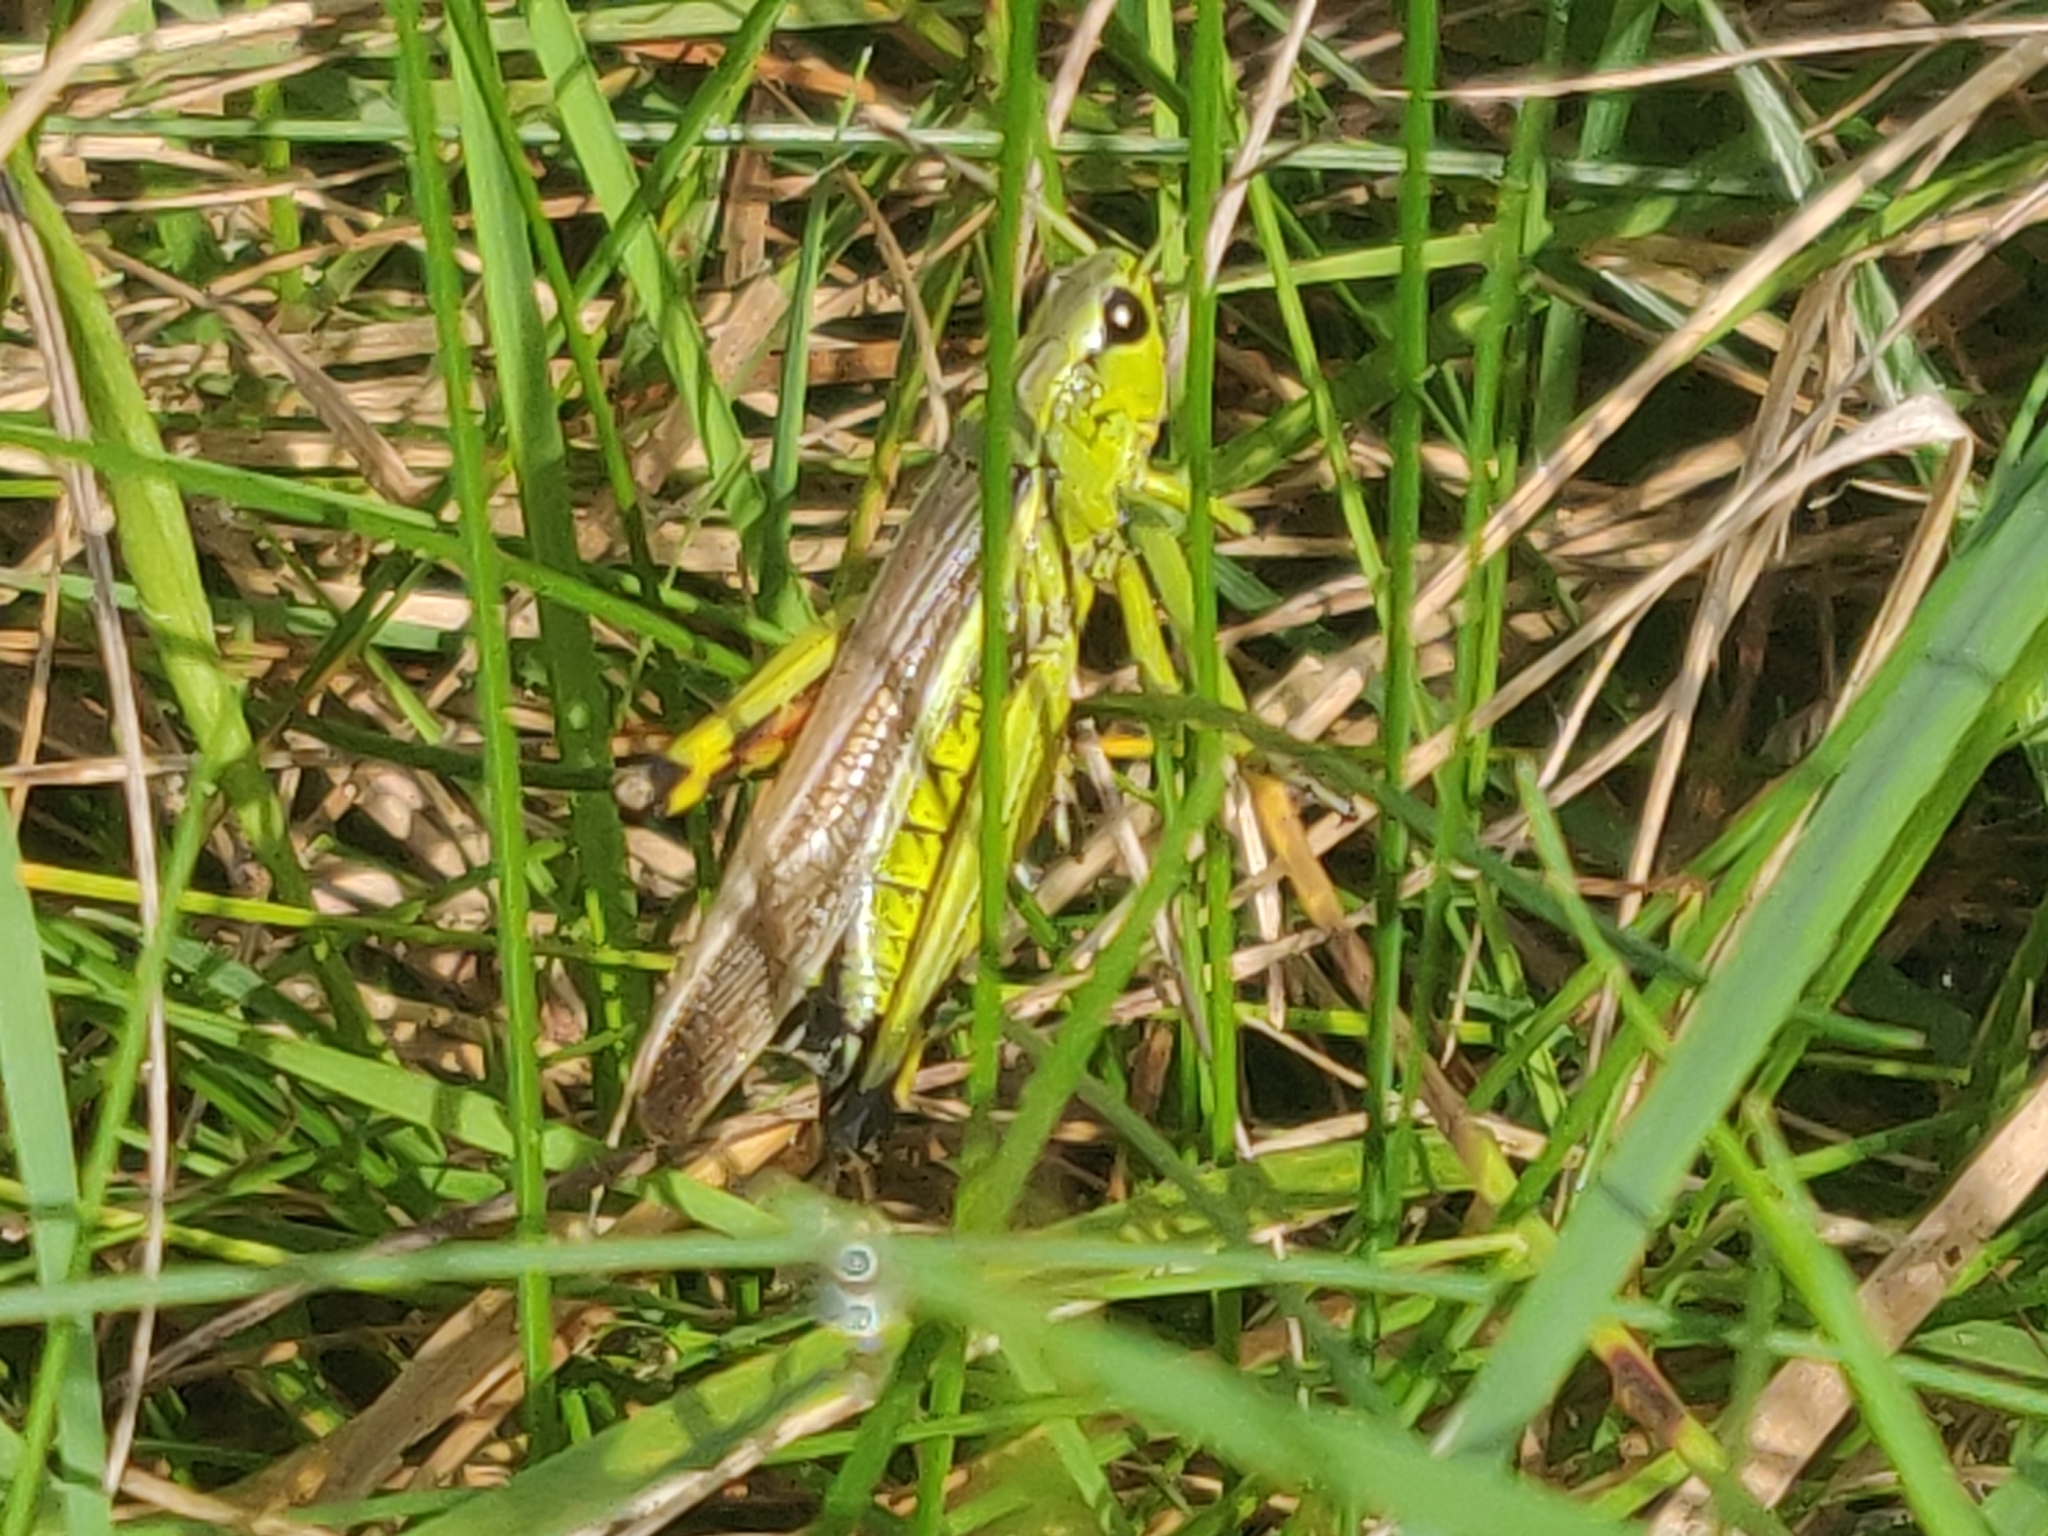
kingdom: Animalia
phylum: Arthropoda
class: Insecta
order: Orthoptera
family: Acrididae
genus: Stethophyma
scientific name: Stethophyma grossum
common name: Large marsh grasshopper
